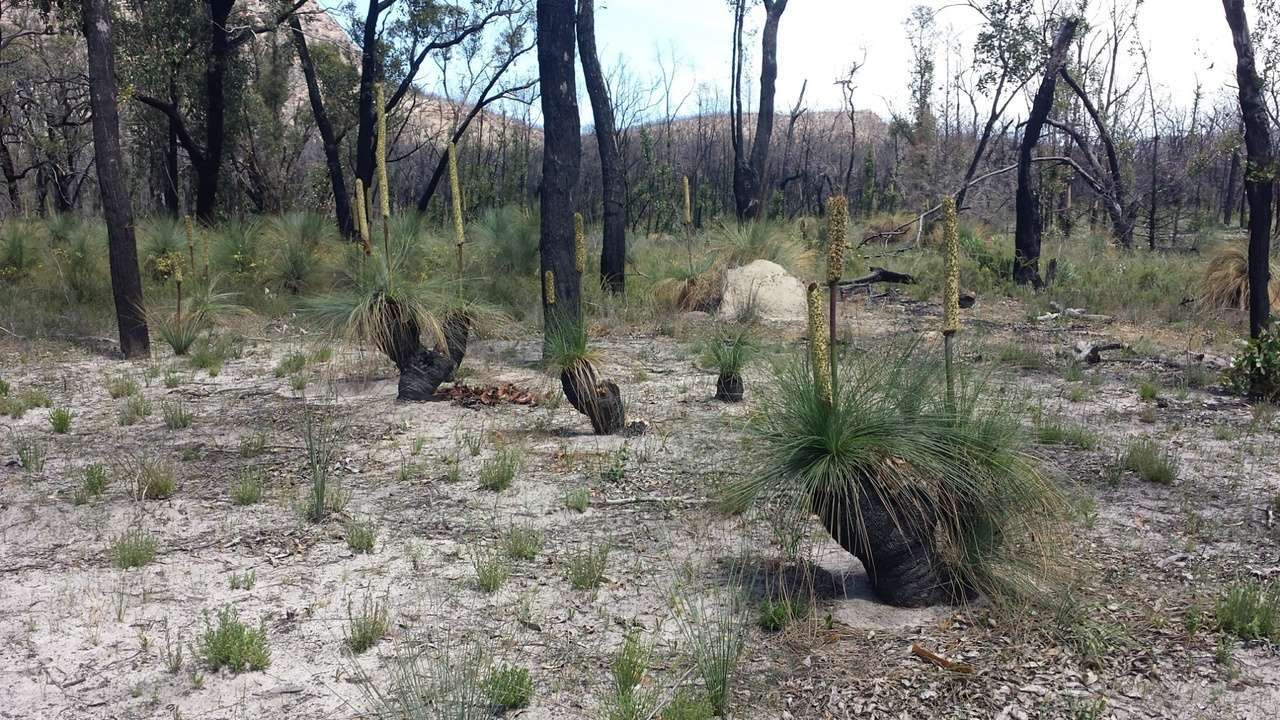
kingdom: Plantae
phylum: Tracheophyta
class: Liliopsida
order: Asparagales
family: Asphodelaceae
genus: Xanthorrhoea
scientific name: Xanthorrhoea australis
